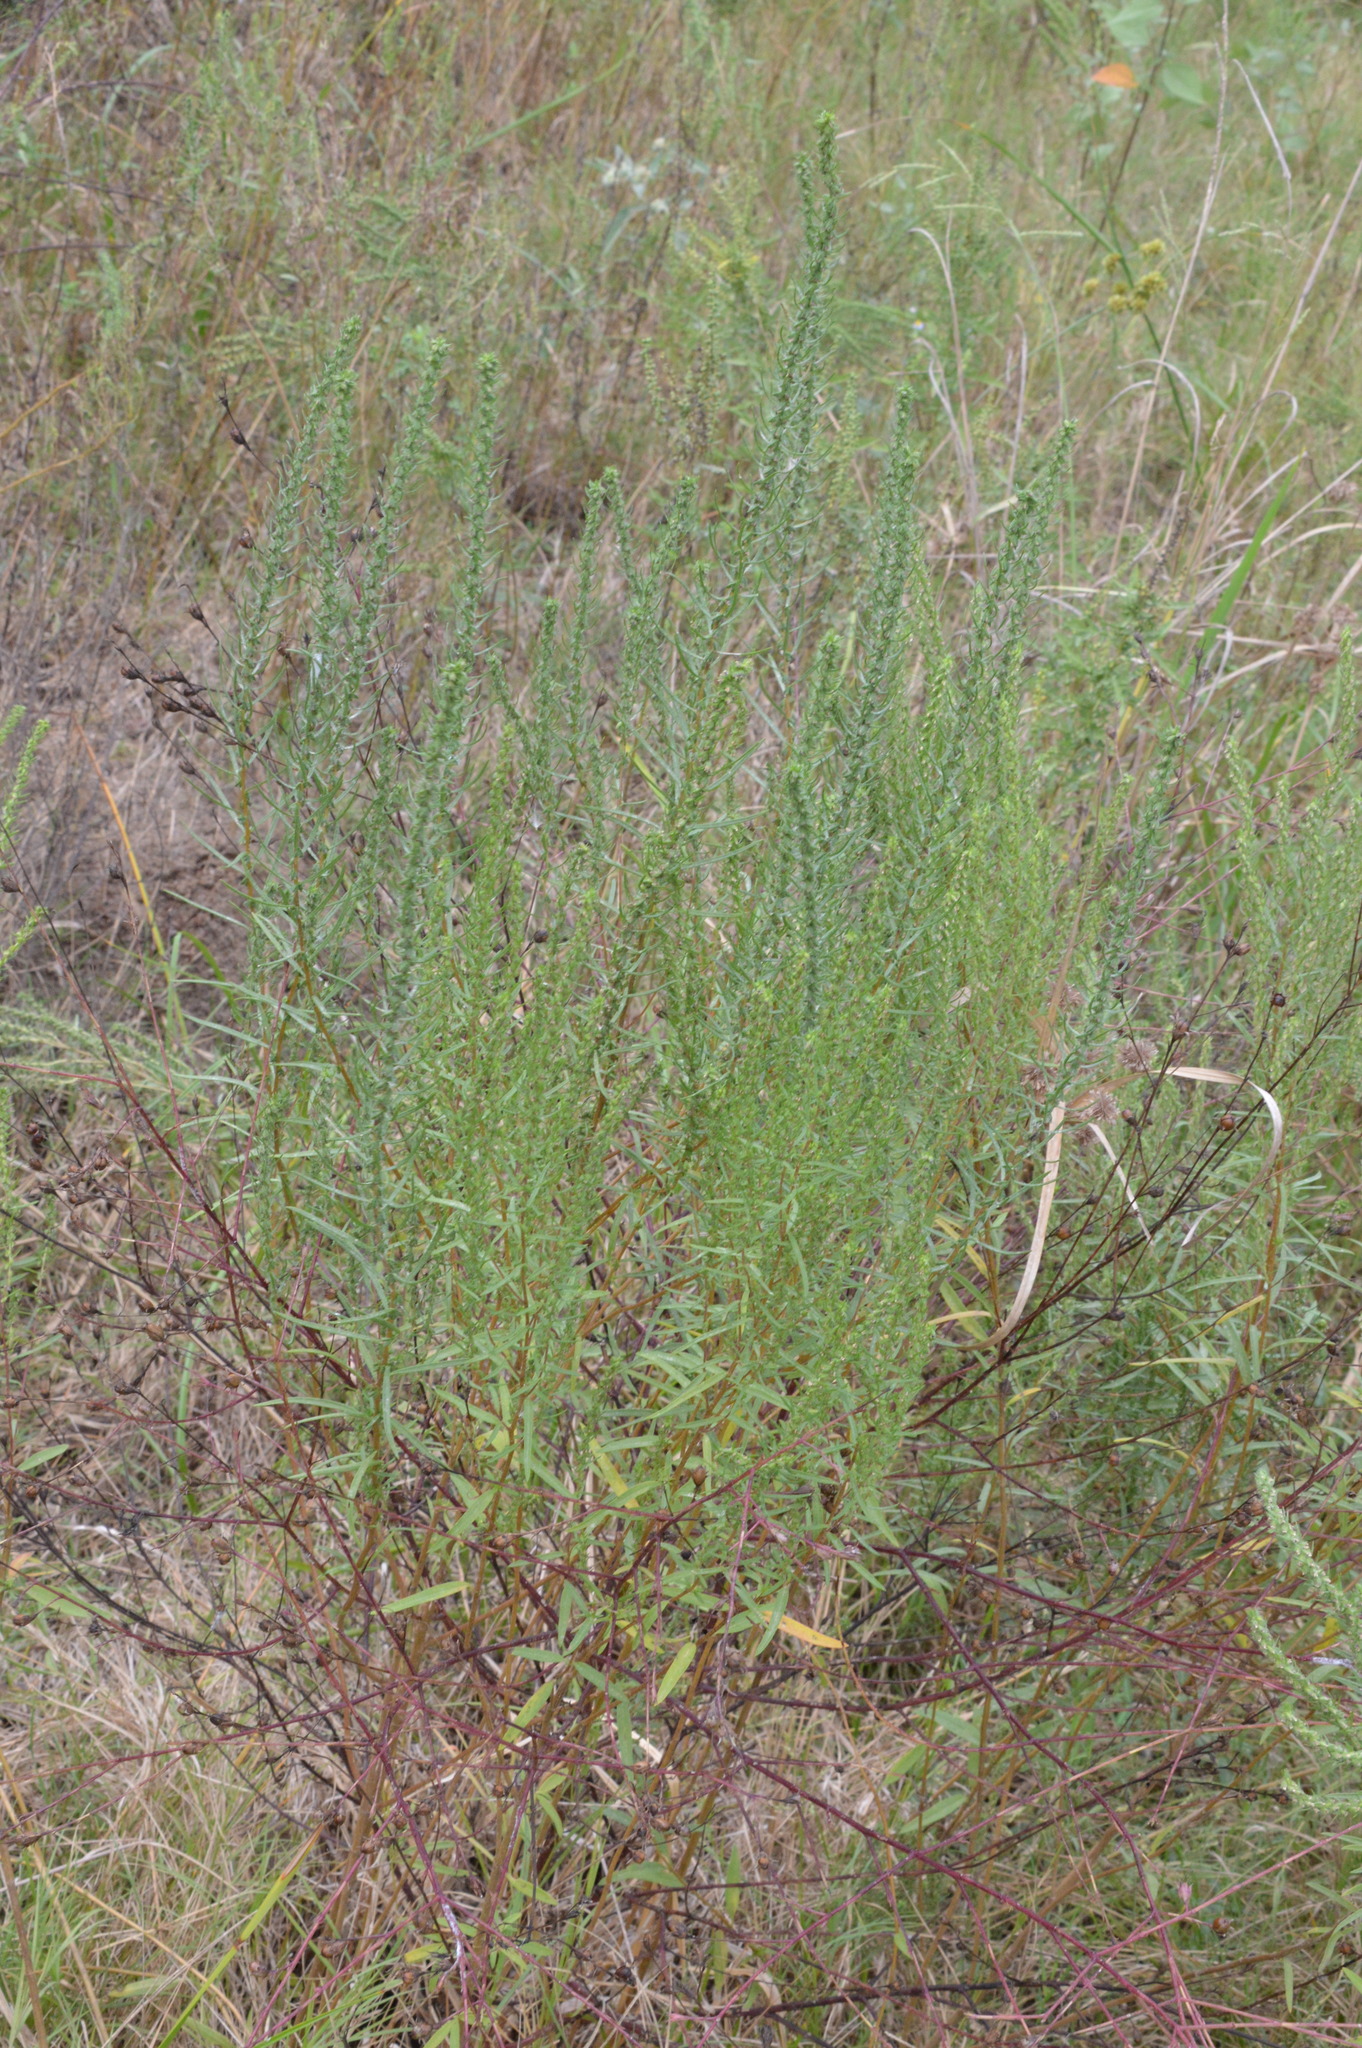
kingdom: Plantae
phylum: Tracheophyta
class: Magnoliopsida
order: Asterales
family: Asteraceae
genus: Iva
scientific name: Iva asperifolia
